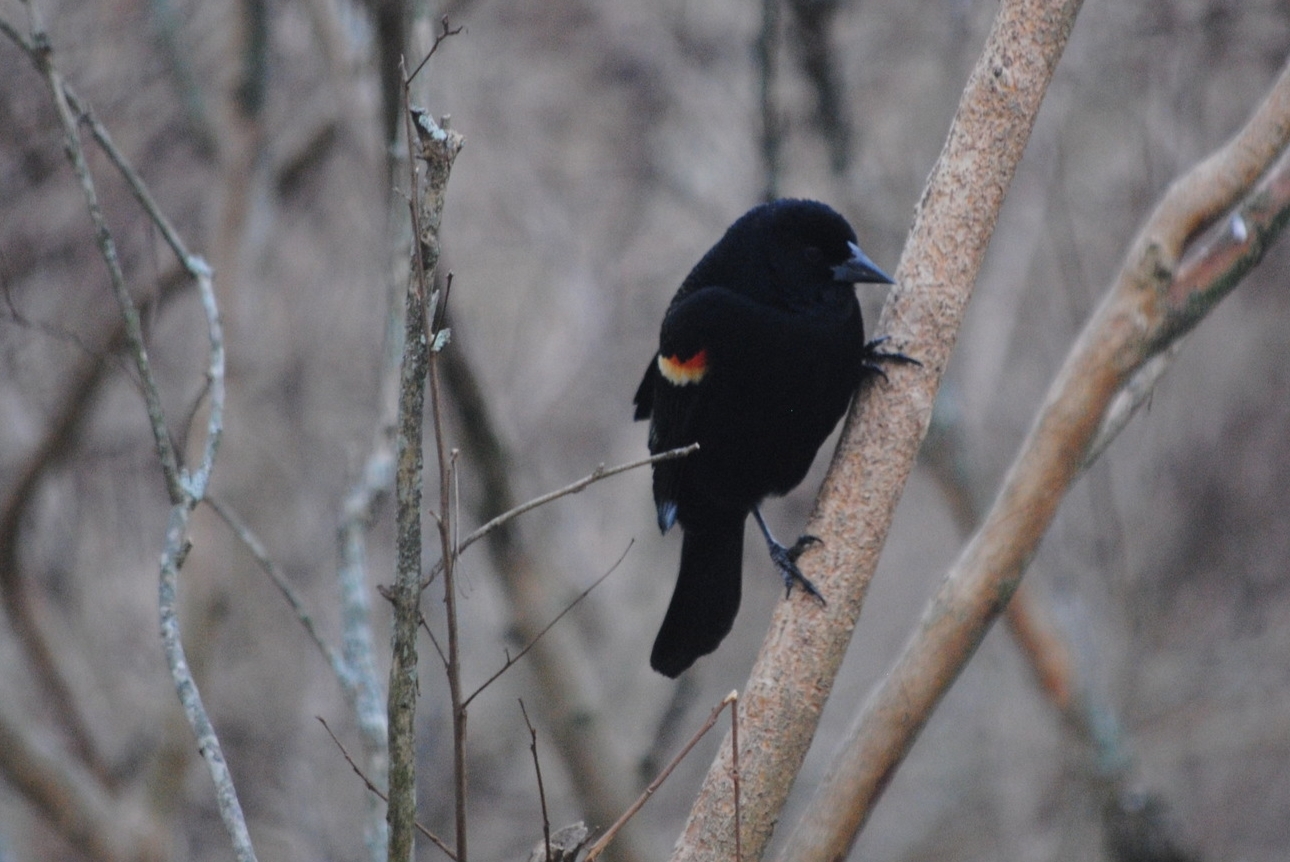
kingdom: Animalia
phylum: Chordata
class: Aves
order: Passeriformes
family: Icteridae
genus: Agelaius
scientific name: Agelaius phoeniceus
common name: Red-winged blackbird
